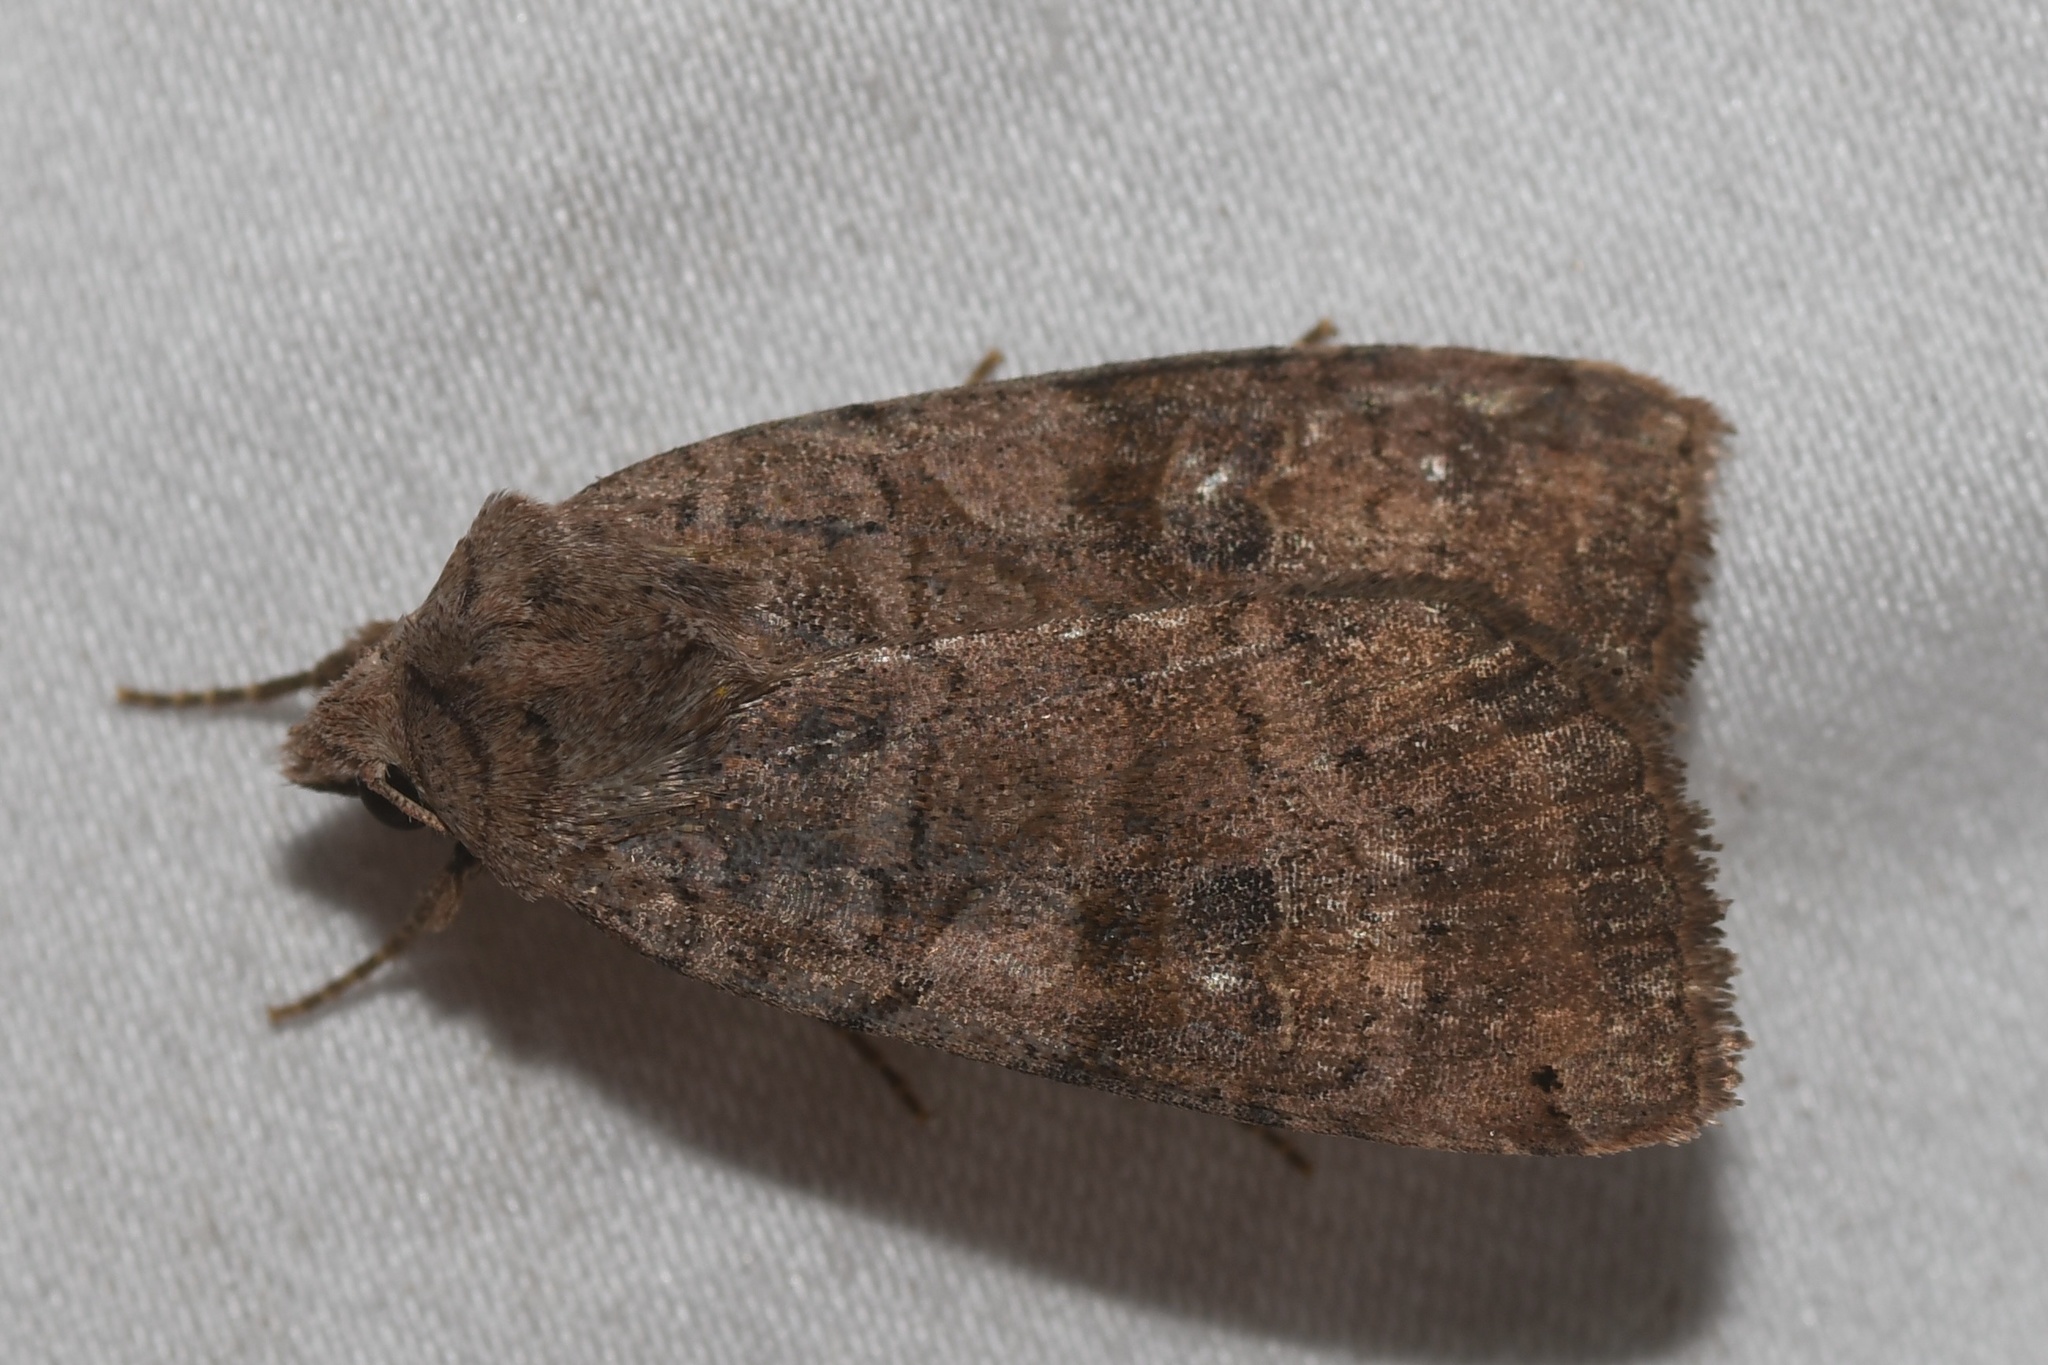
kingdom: Animalia
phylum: Arthropoda
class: Insecta
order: Lepidoptera
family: Noctuidae
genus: Xestia
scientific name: Xestia smithii
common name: Smith's dart
